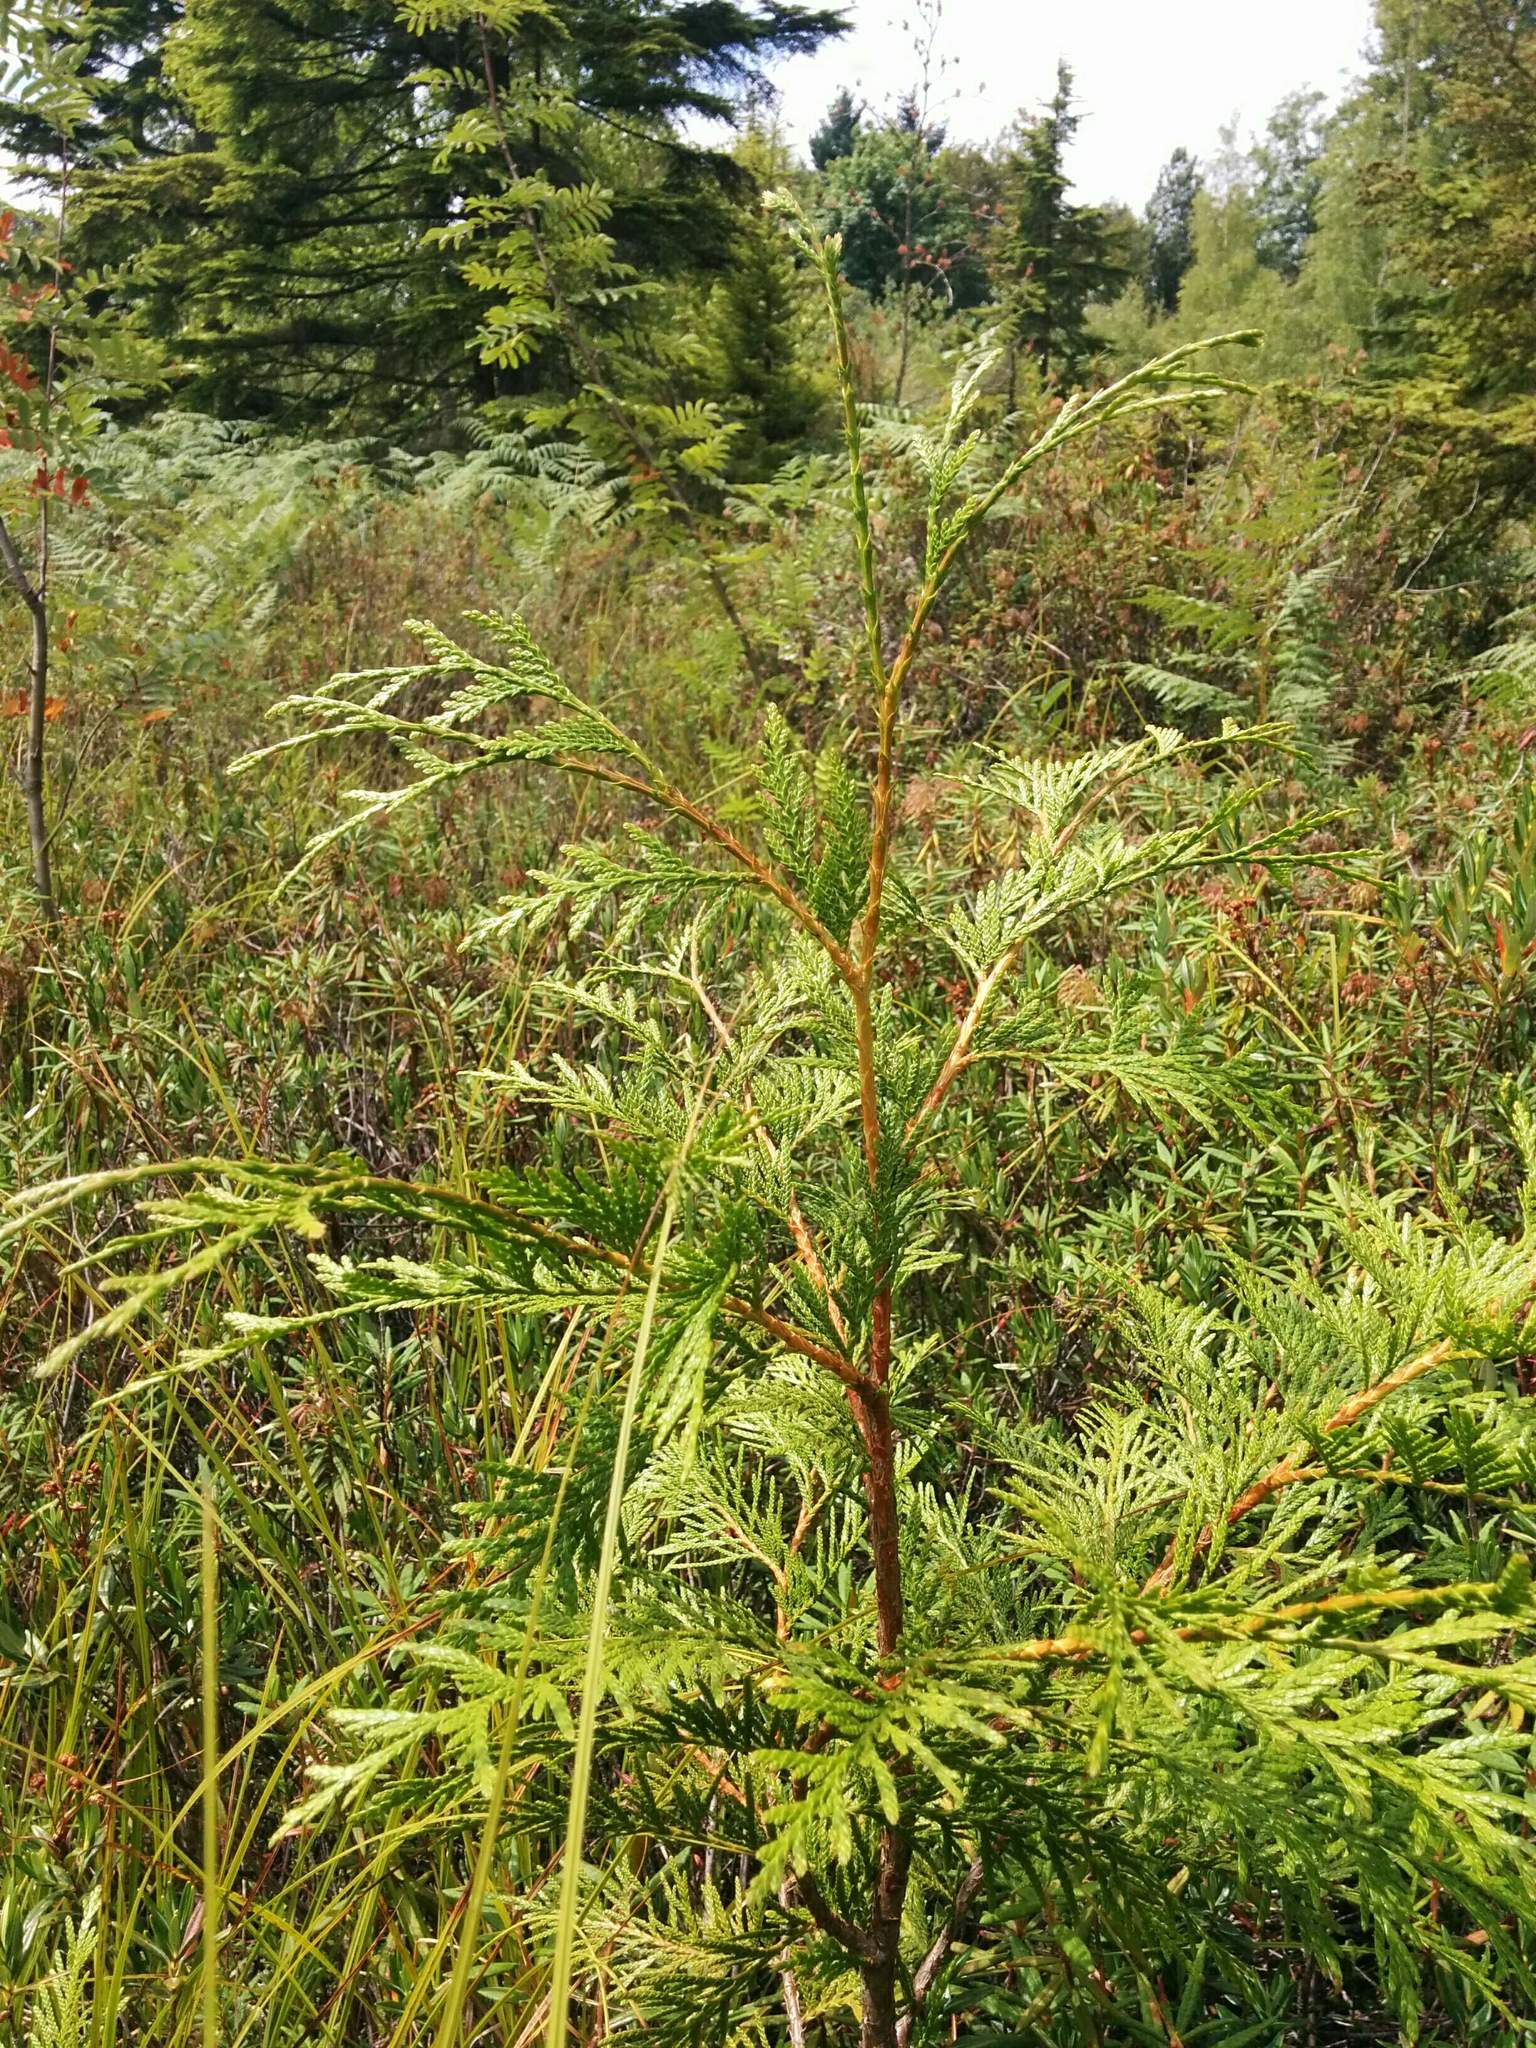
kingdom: Plantae
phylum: Tracheophyta
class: Pinopsida
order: Pinales
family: Cupressaceae
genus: Thuja
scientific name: Thuja plicata
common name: Western red-cedar
